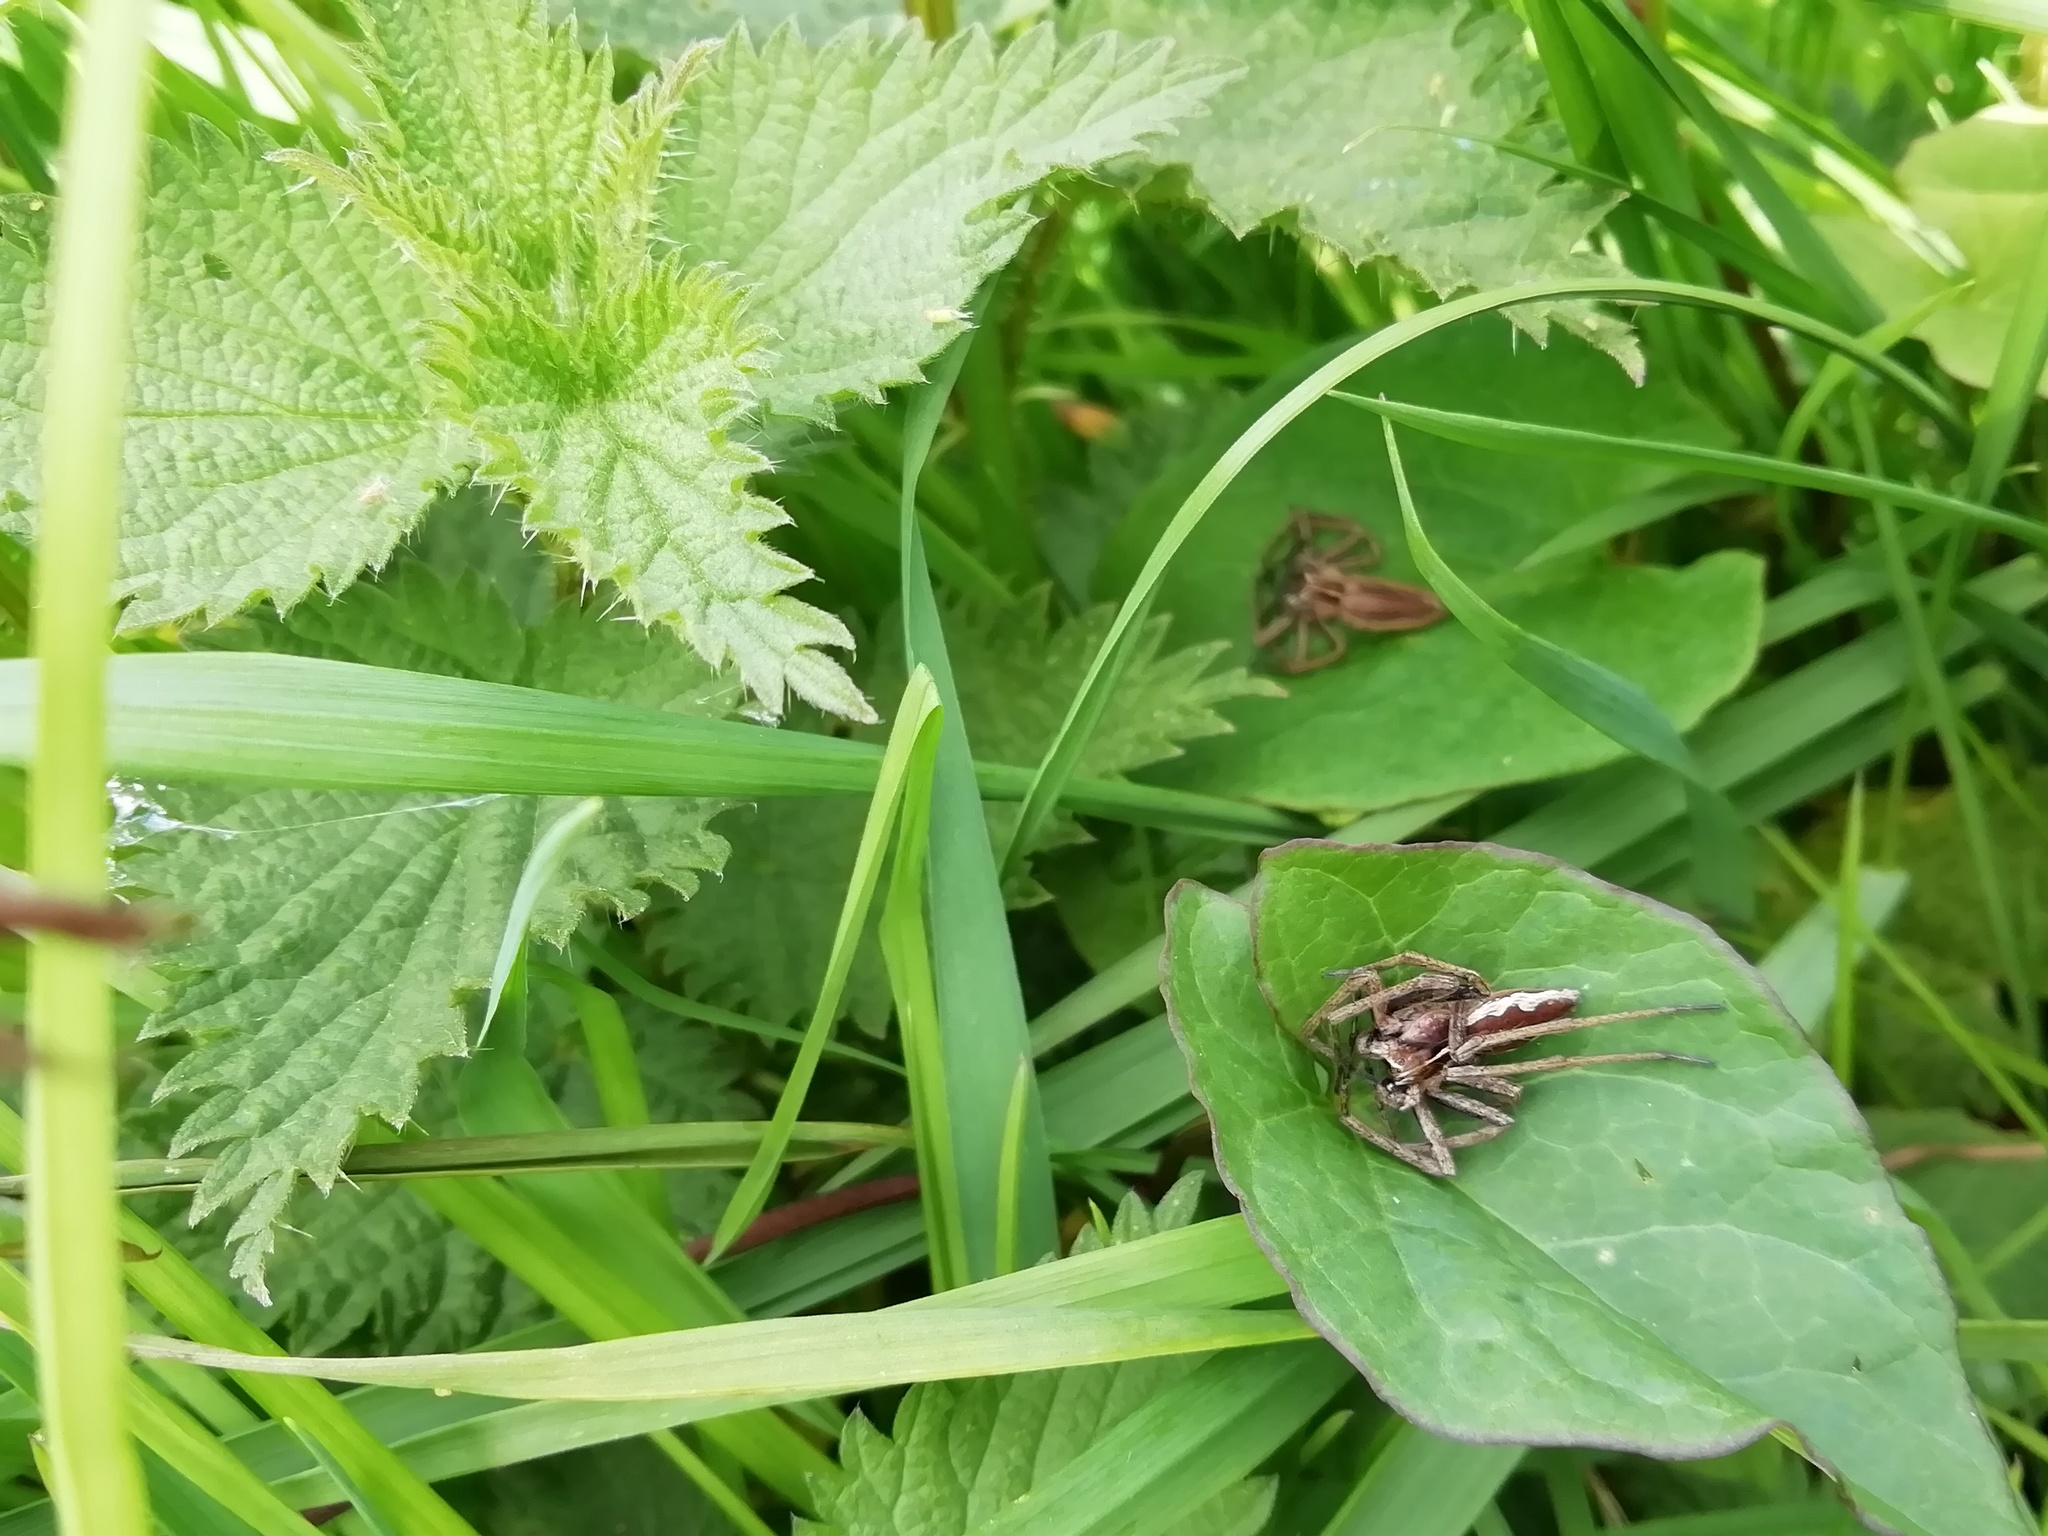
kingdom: Animalia
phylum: Arthropoda
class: Arachnida
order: Araneae
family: Pisauridae
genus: Pisaura
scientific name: Pisaura mirabilis
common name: Tent spider
